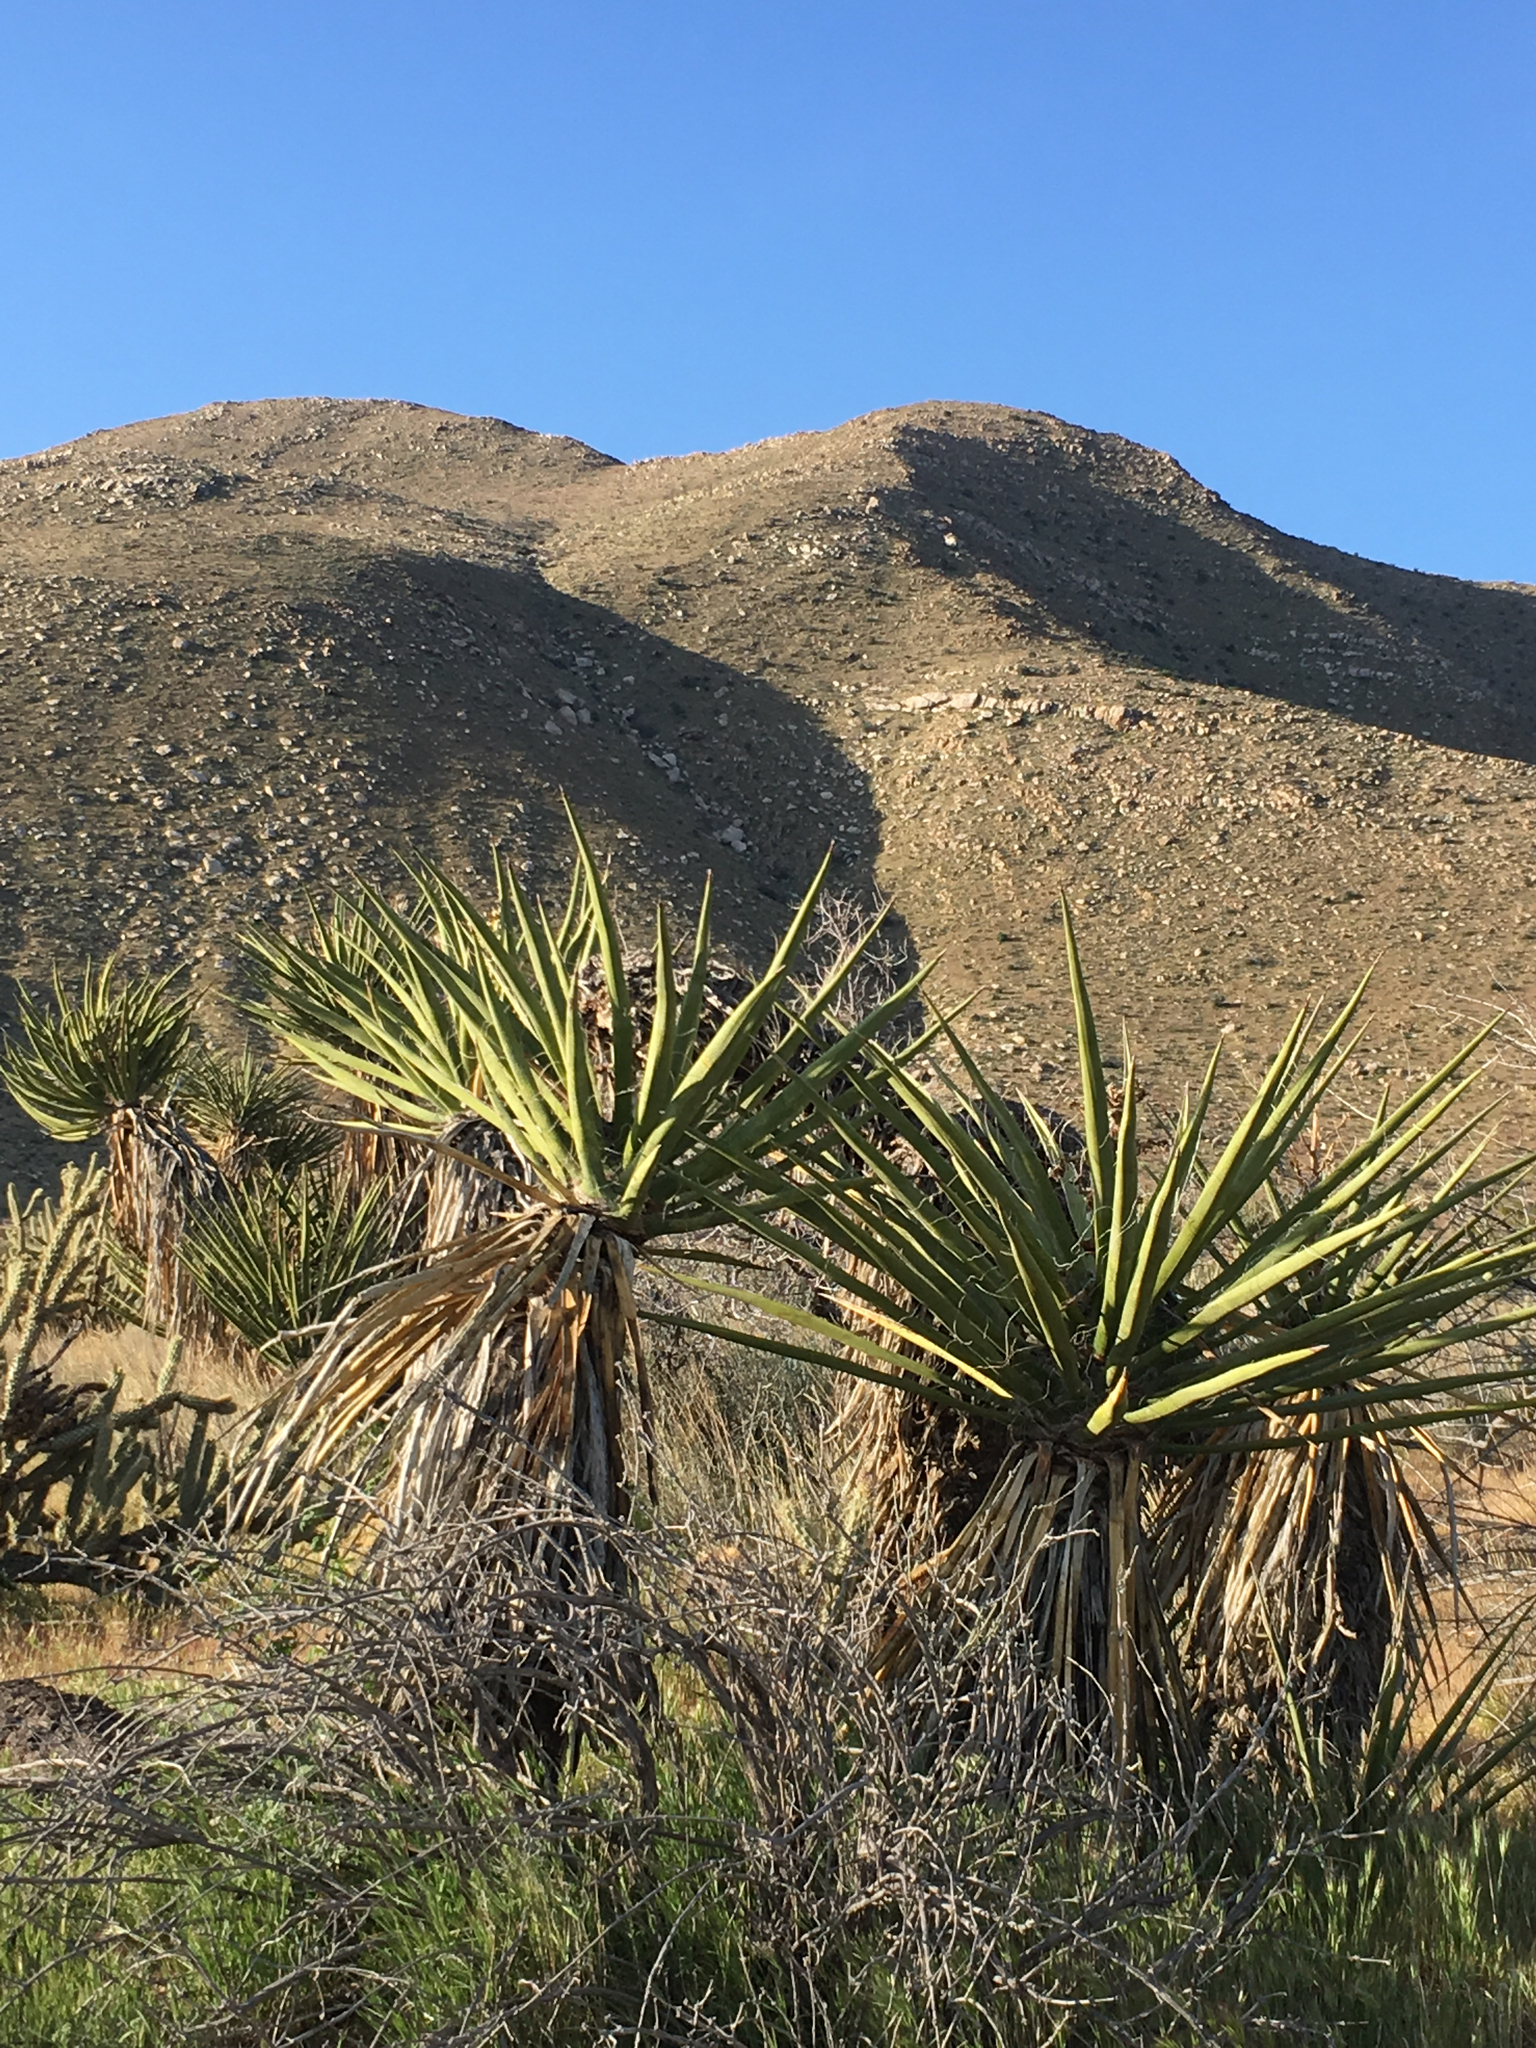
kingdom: Plantae
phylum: Tracheophyta
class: Liliopsida
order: Asparagales
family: Asparagaceae
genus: Yucca
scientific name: Yucca schidigera
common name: Mojave yucca
